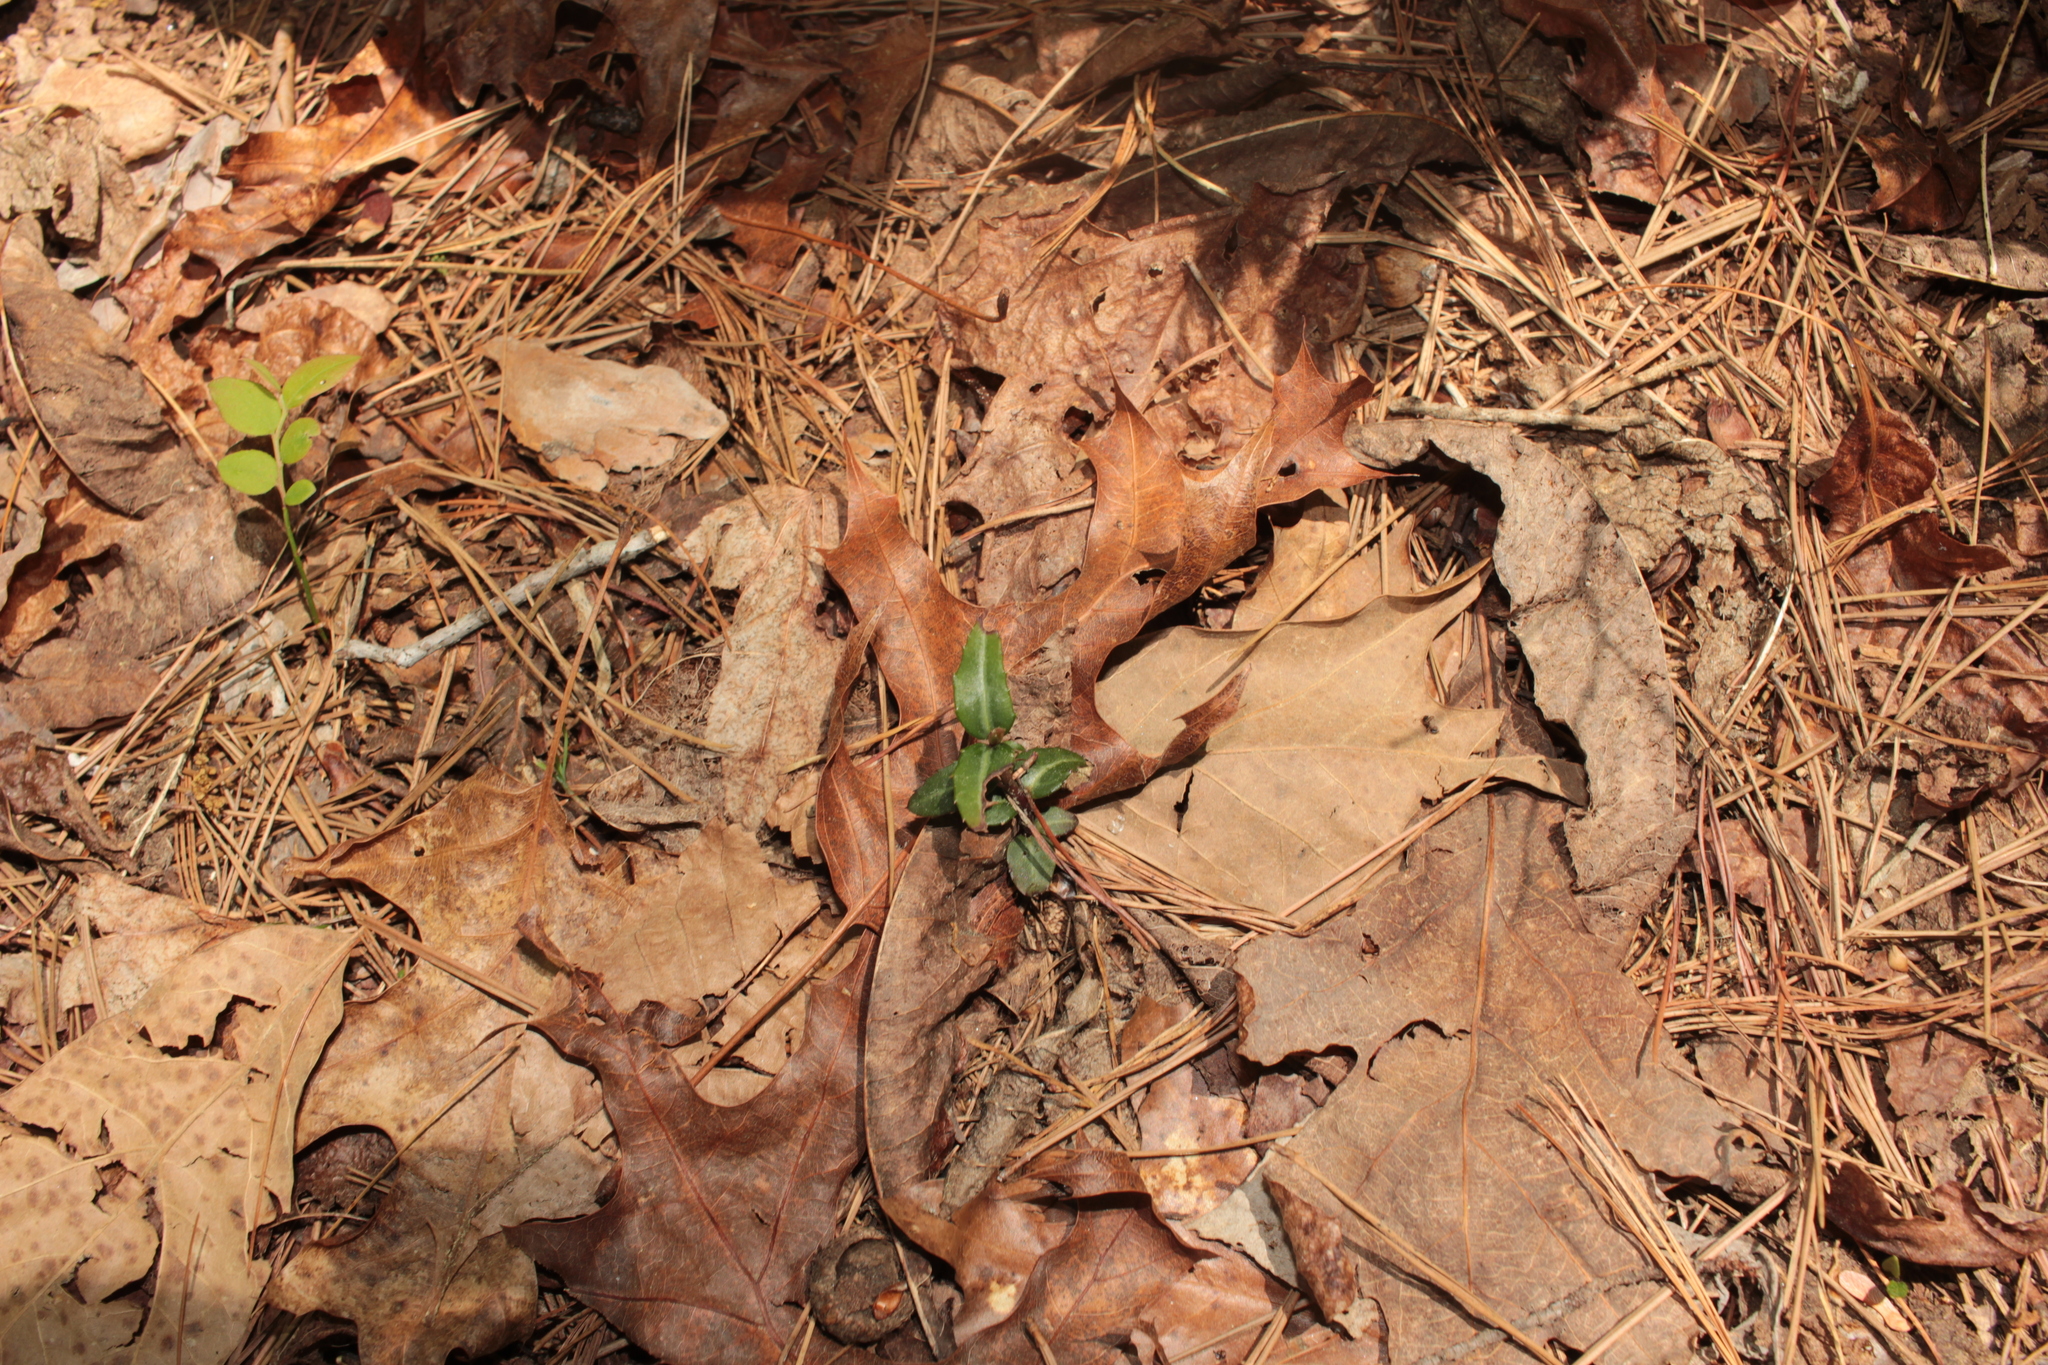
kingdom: Plantae
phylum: Tracheophyta
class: Magnoliopsida
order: Ericales
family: Ericaceae
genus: Chimaphila
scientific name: Chimaphila maculata
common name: Spotted pipsissewa
